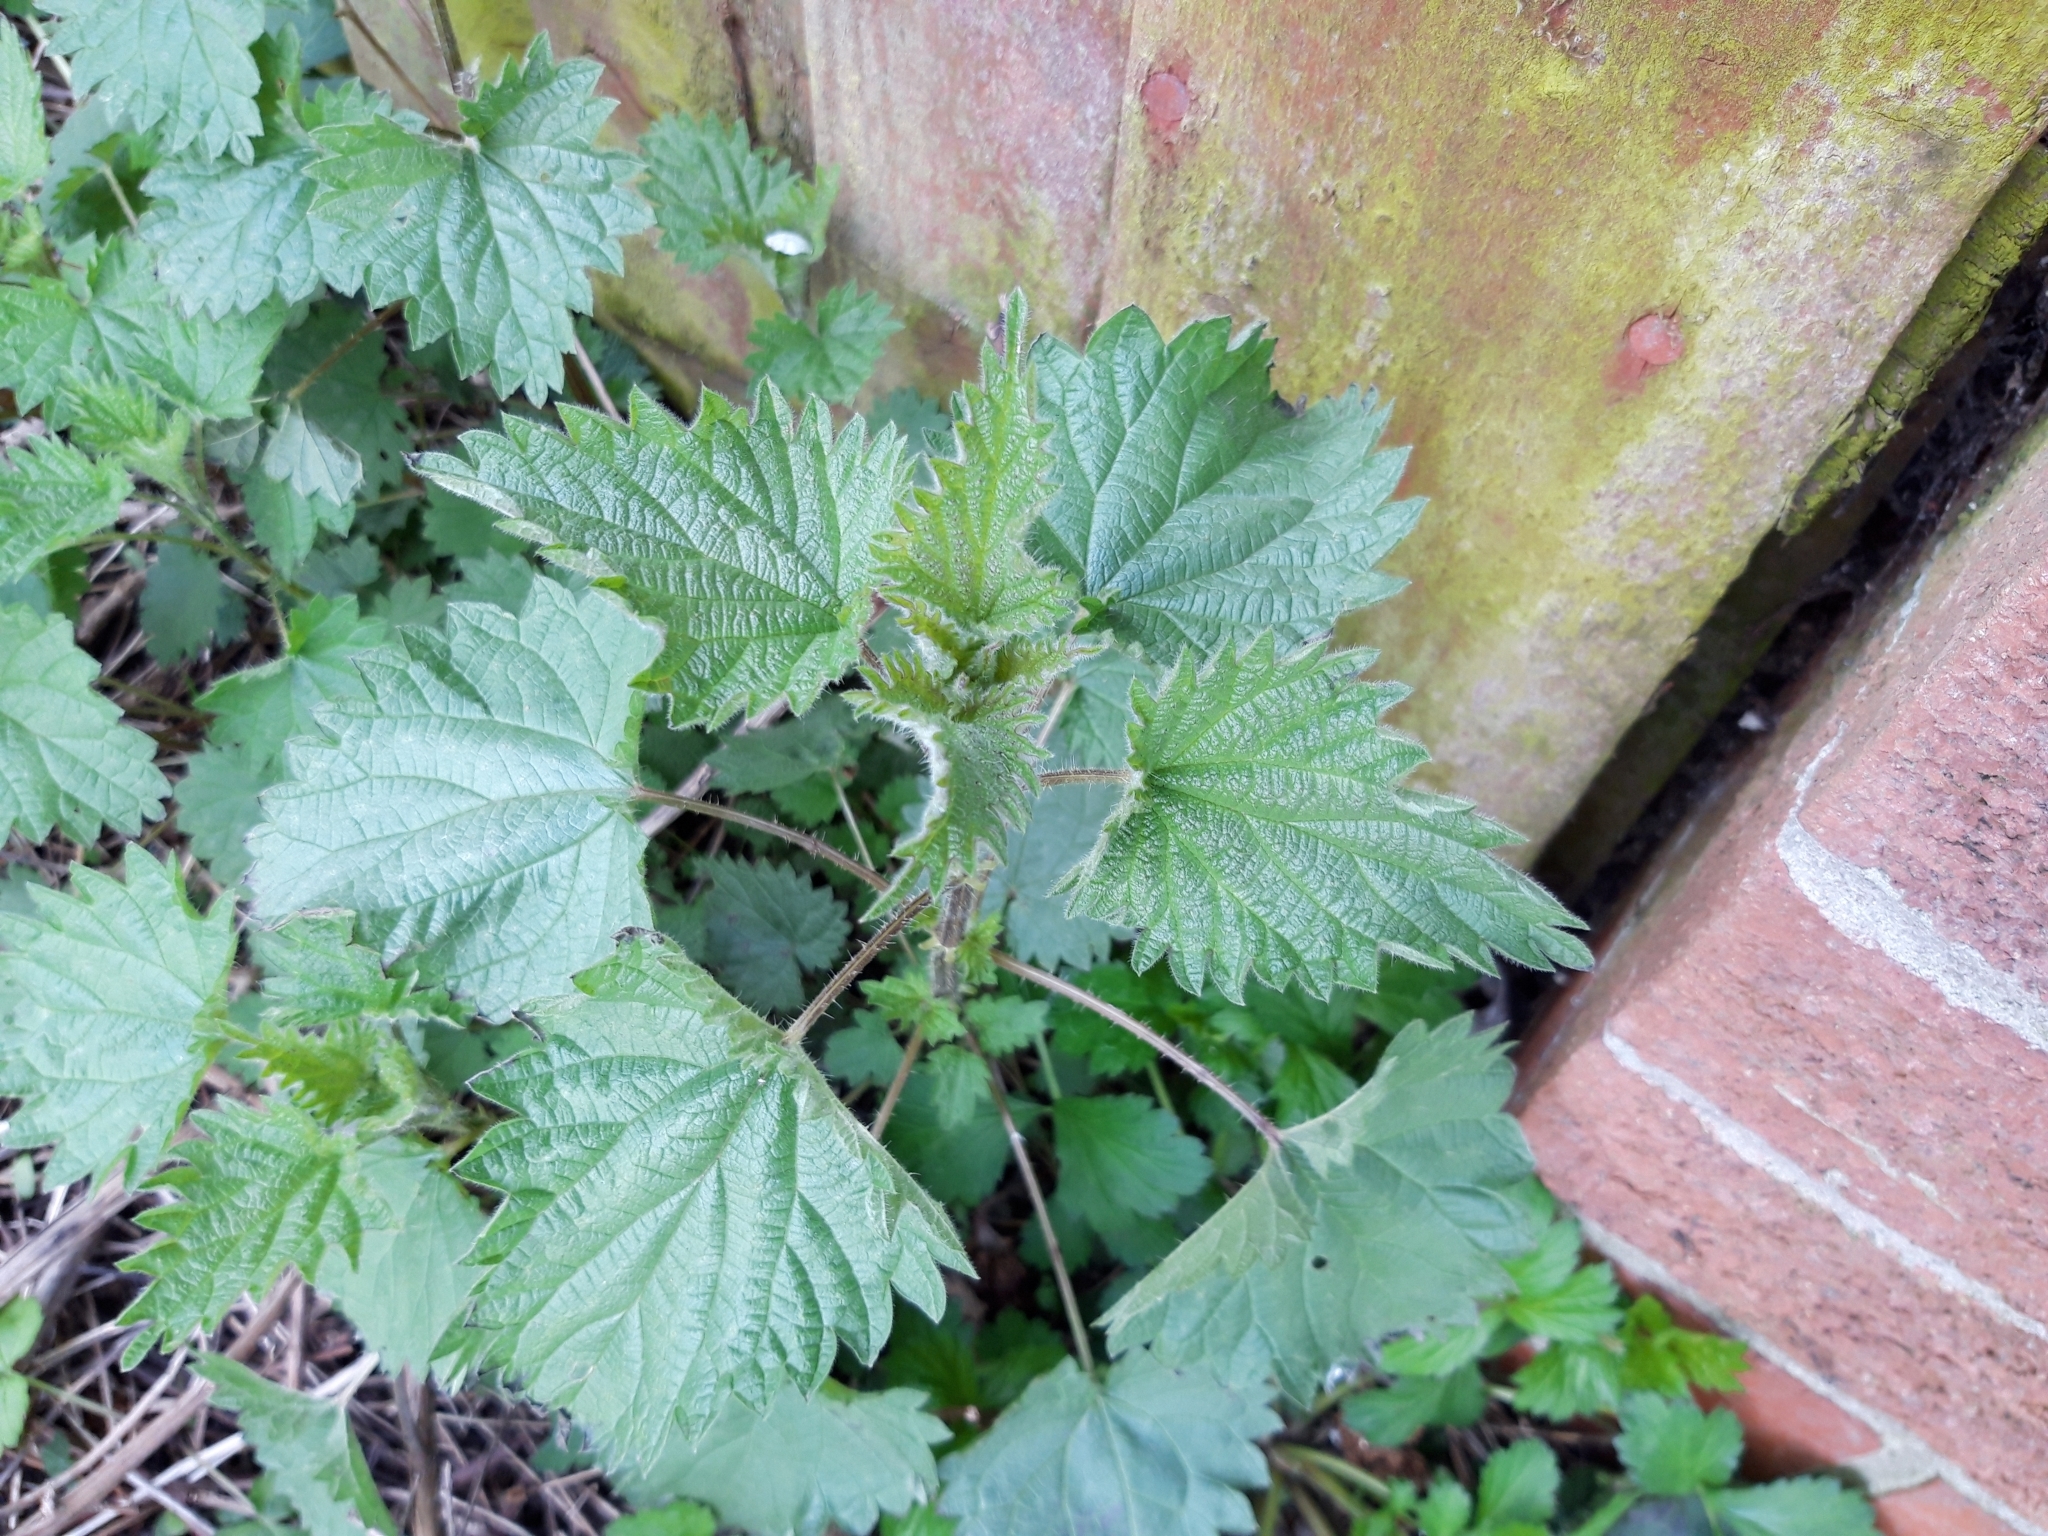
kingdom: Plantae
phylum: Tracheophyta
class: Magnoliopsida
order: Rosales
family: Urticaceae
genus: Urtica
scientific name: Urtica dioica
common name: Common nettle
